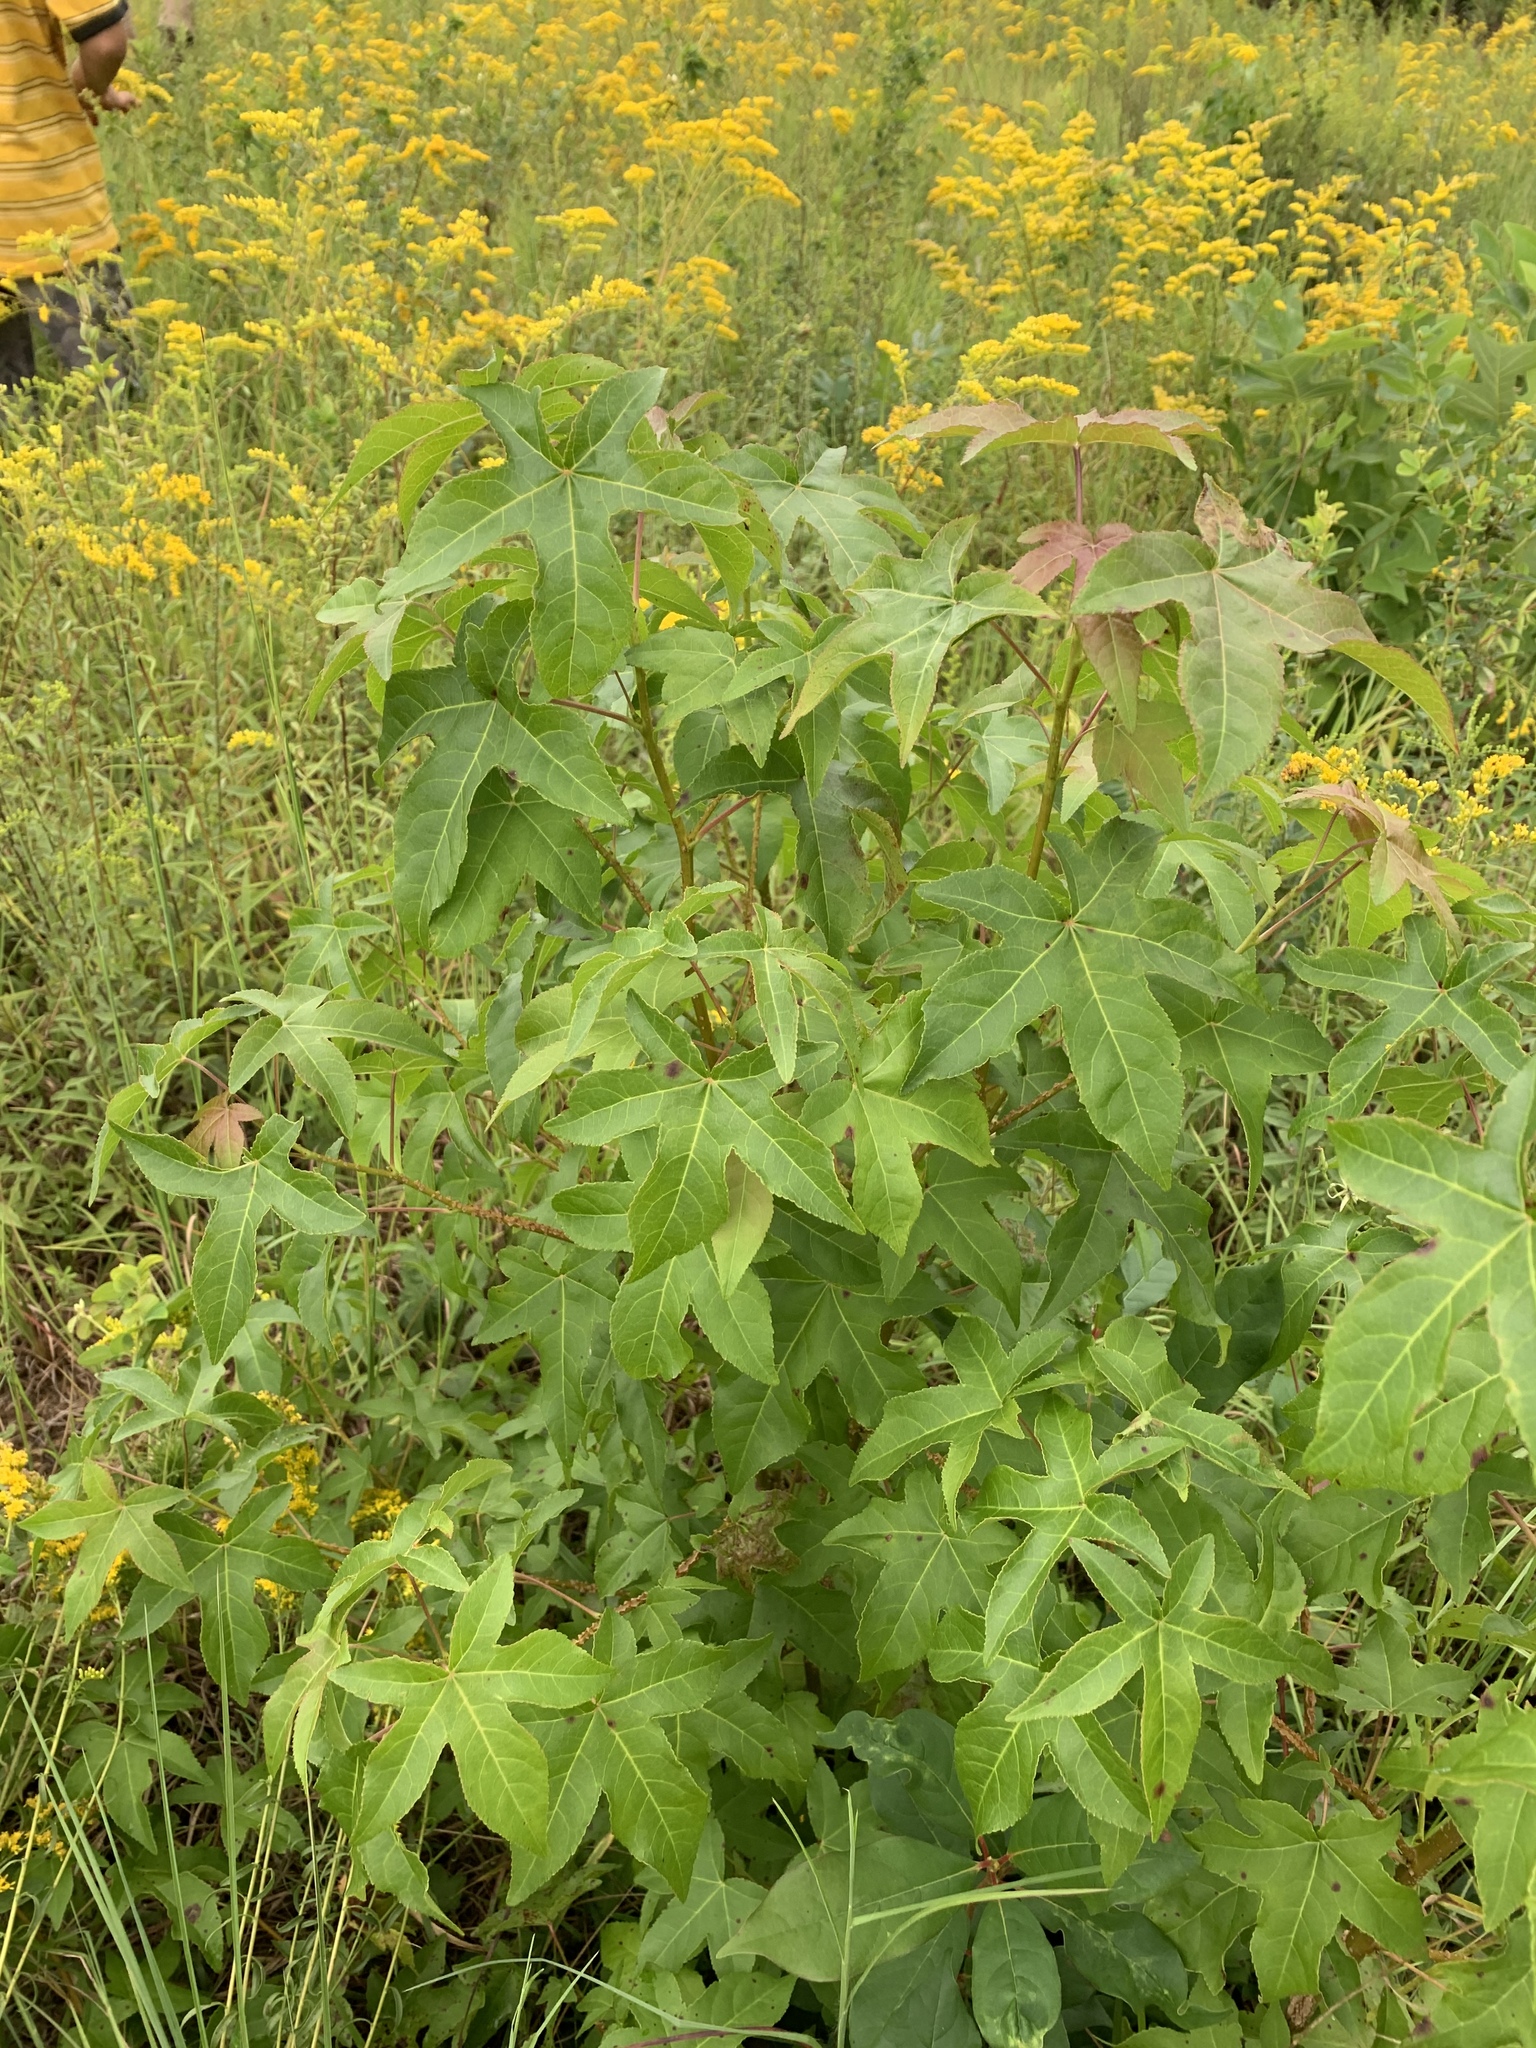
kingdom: Plantae
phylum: Tracheophyta
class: Magnoliopsida
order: Saxifragales
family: Altingiaceae
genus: Liquidambar
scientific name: Liquidambar styraciflua
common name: Sweet gum
